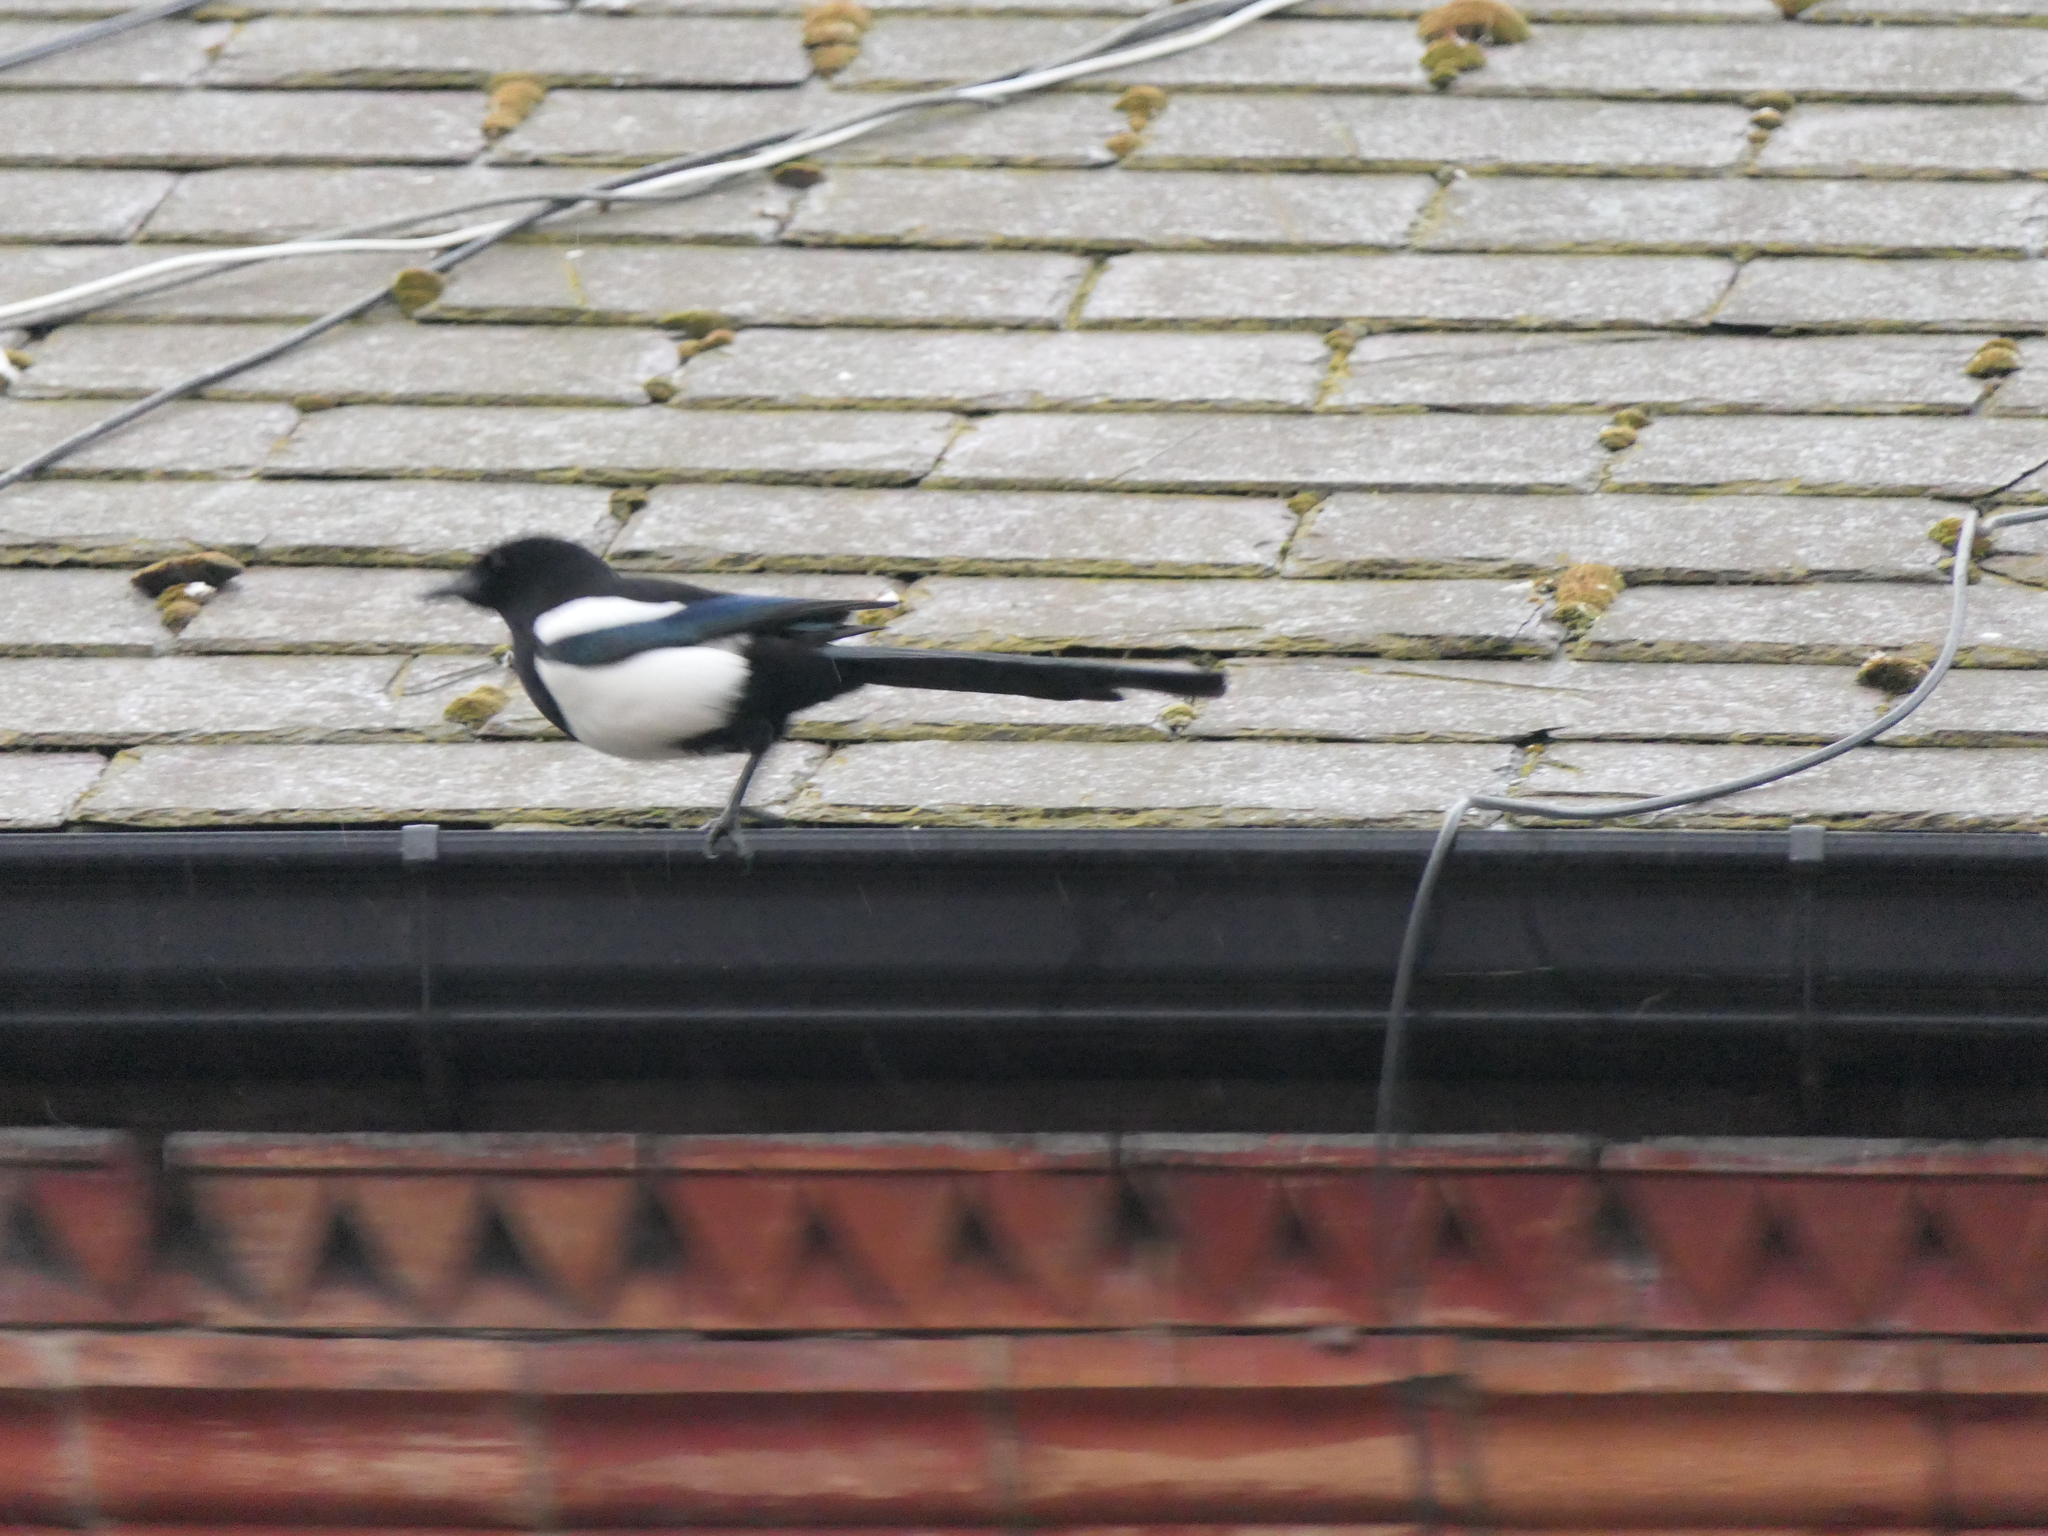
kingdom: Animalia
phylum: Chordata
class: Aves
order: Passeriformes
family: Corvidae
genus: Pica
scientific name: Pica pica
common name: Eurasian magpie
